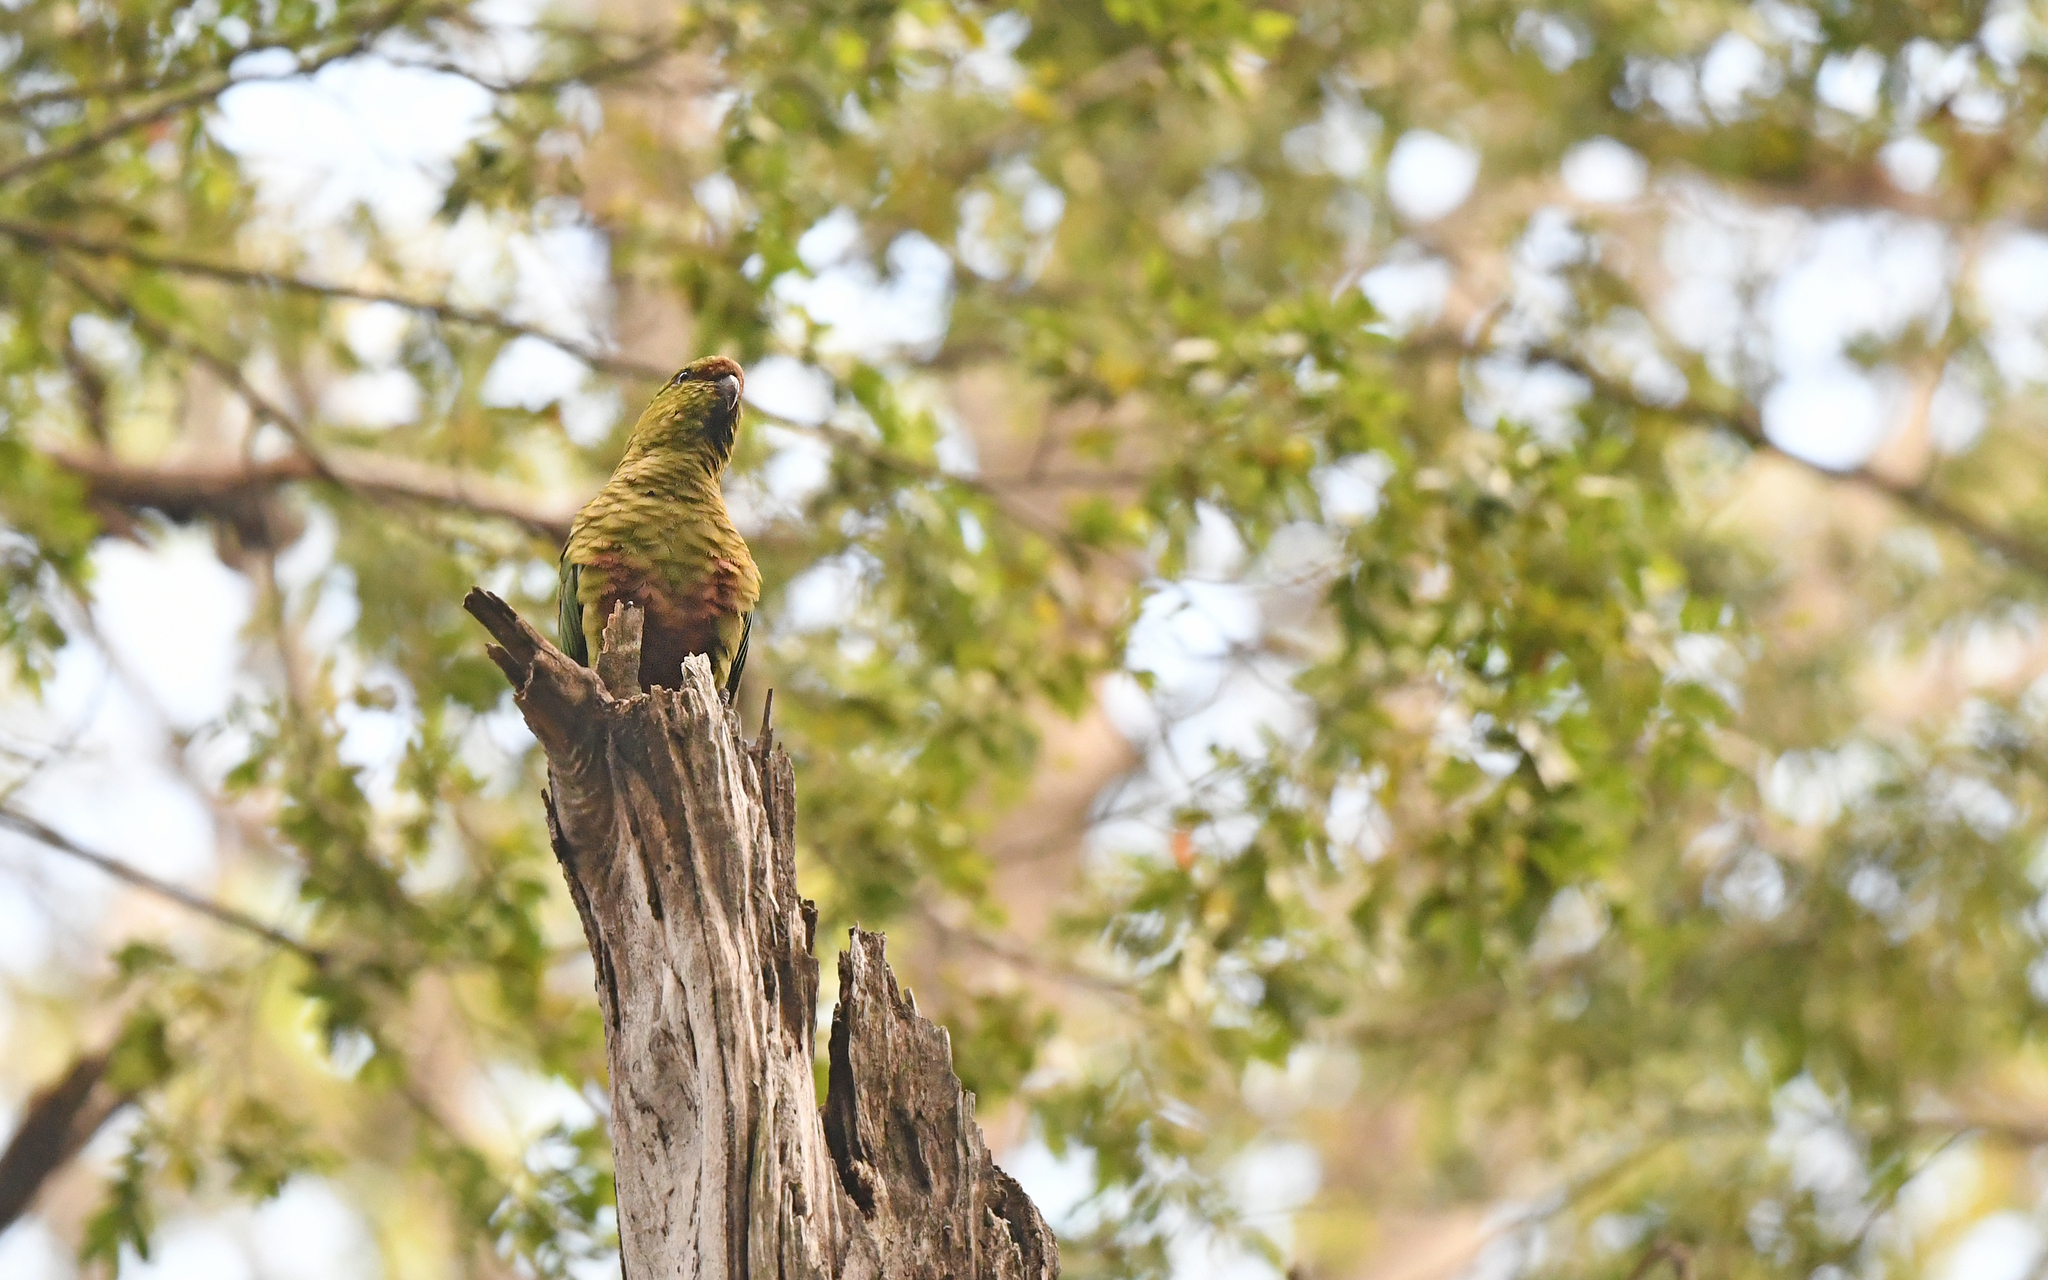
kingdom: Animalia
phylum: Chordata
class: Aves
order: Psittaciformes
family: Psittacidae
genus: Enicognathus
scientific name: Enicognathus ferrugineus
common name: Austral parakeet
